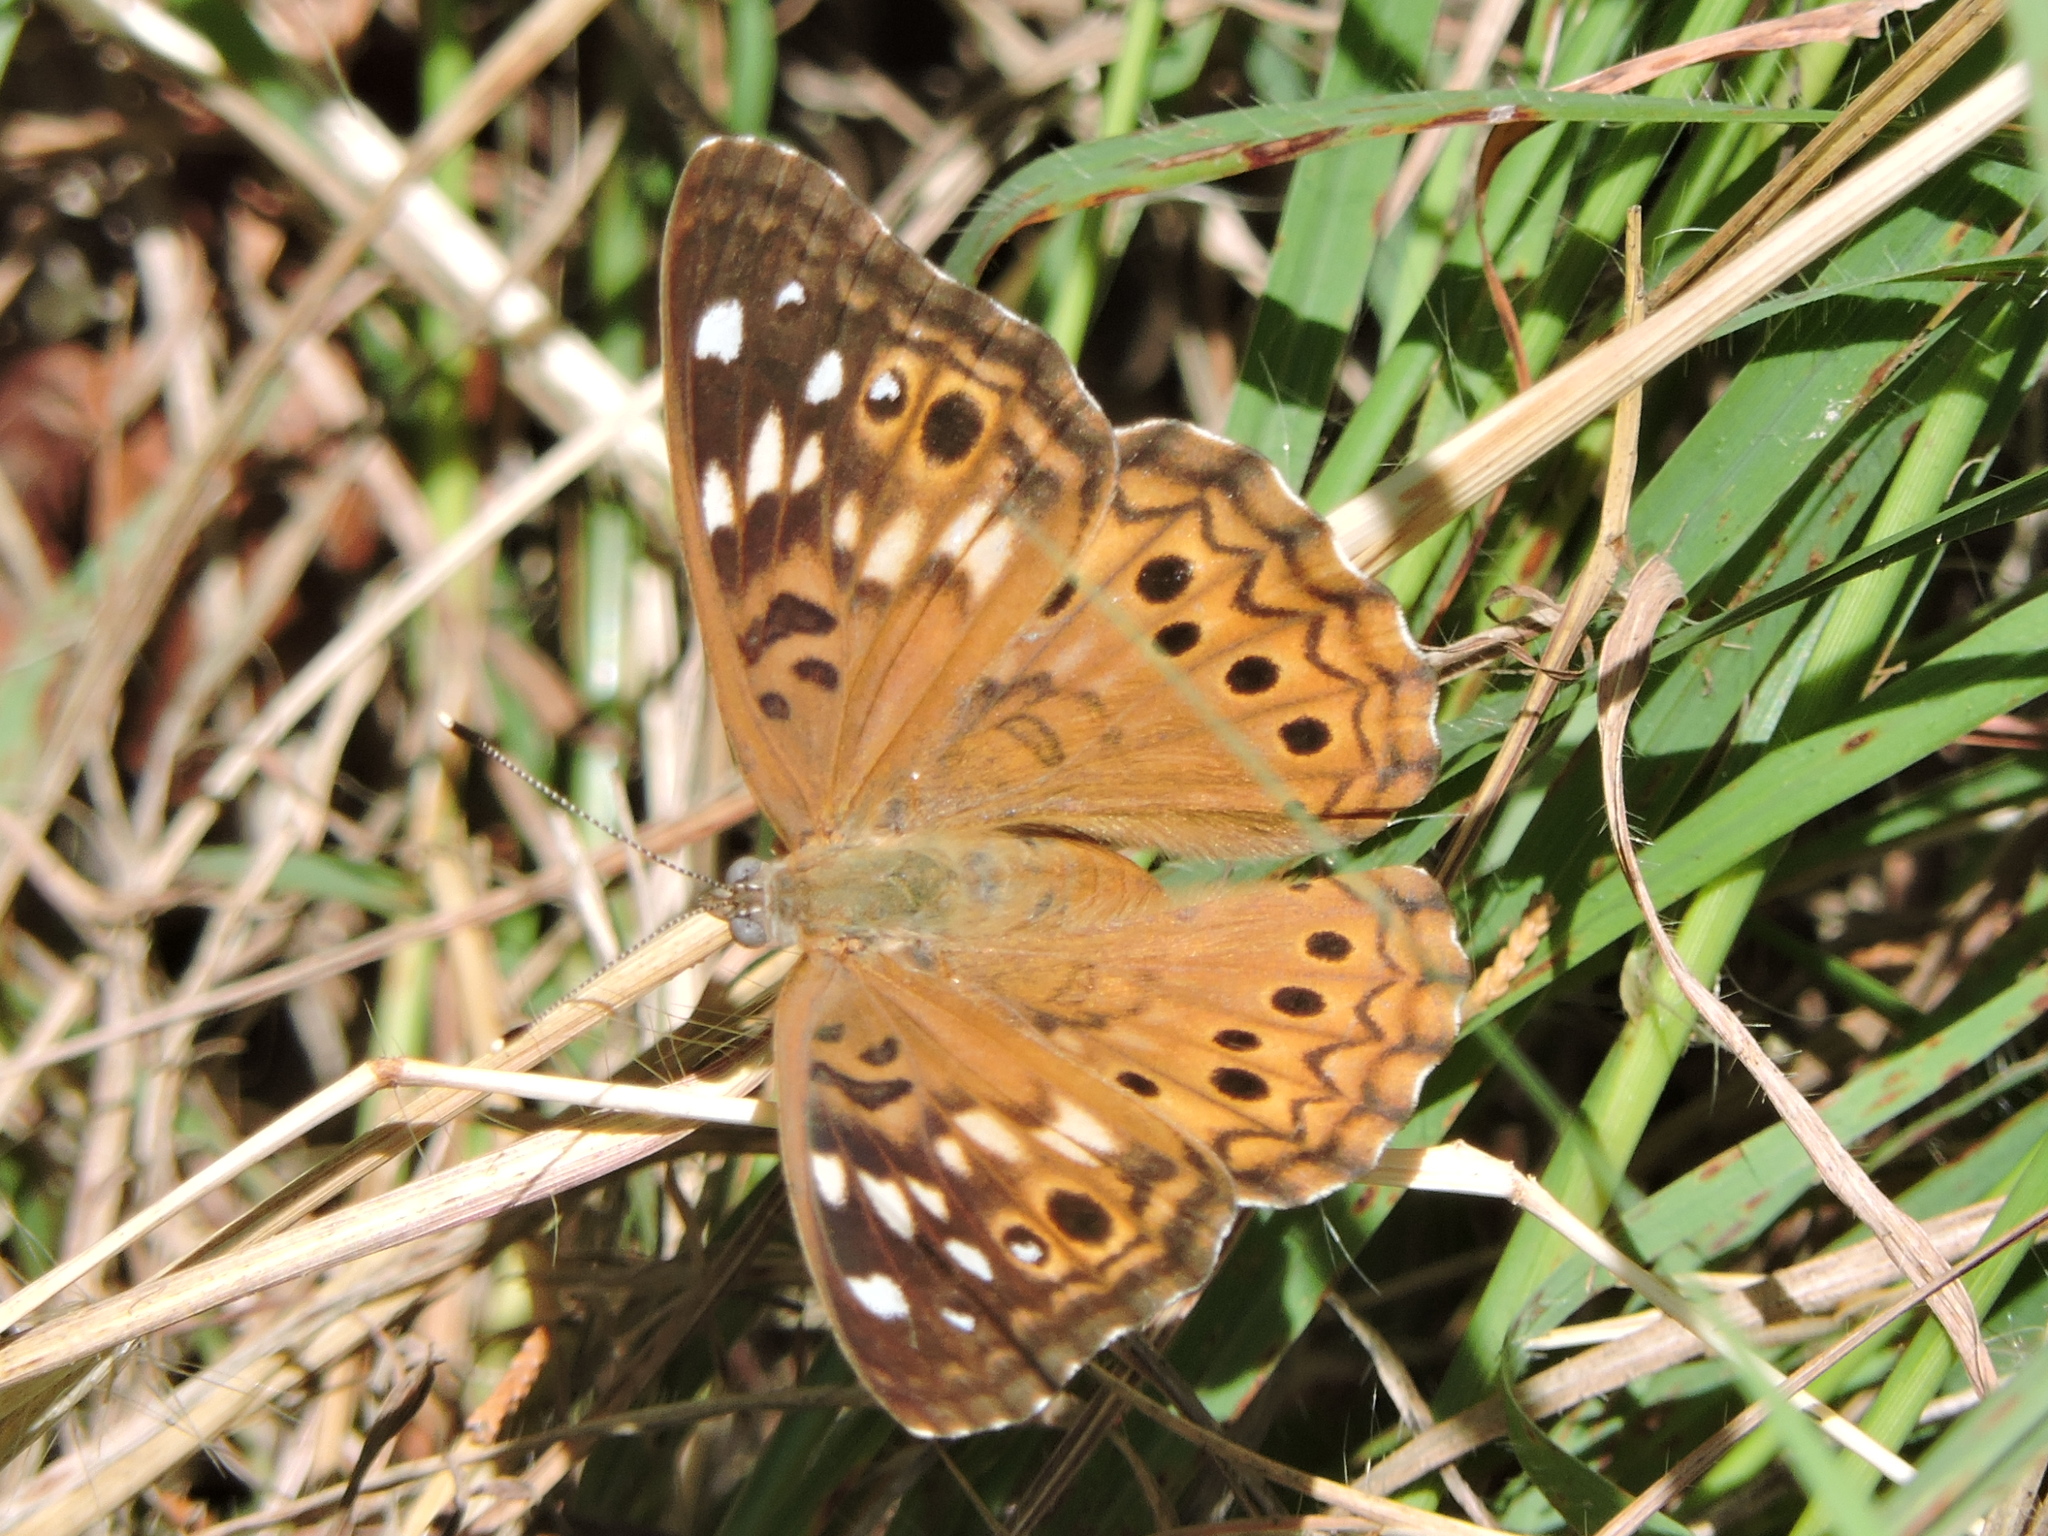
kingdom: Animalia
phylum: Arthropoda
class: Insecta
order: Lepidoptera
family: Nymphalidae
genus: Asterocampa
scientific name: Asterocampa celtis
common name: Hackberry emperor
